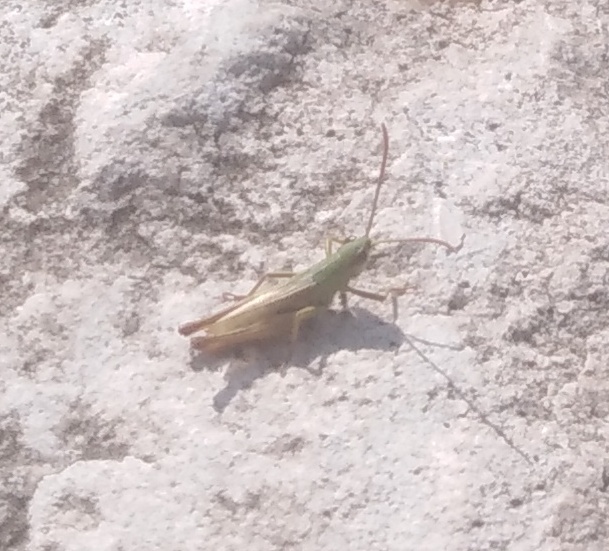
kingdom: Animalia
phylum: Arthropoda
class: Insecta
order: Orthoptera
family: Acrididae
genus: Pseudochorthippus
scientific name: Pseudochorthippus parallelus
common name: Meadow grasshopper
